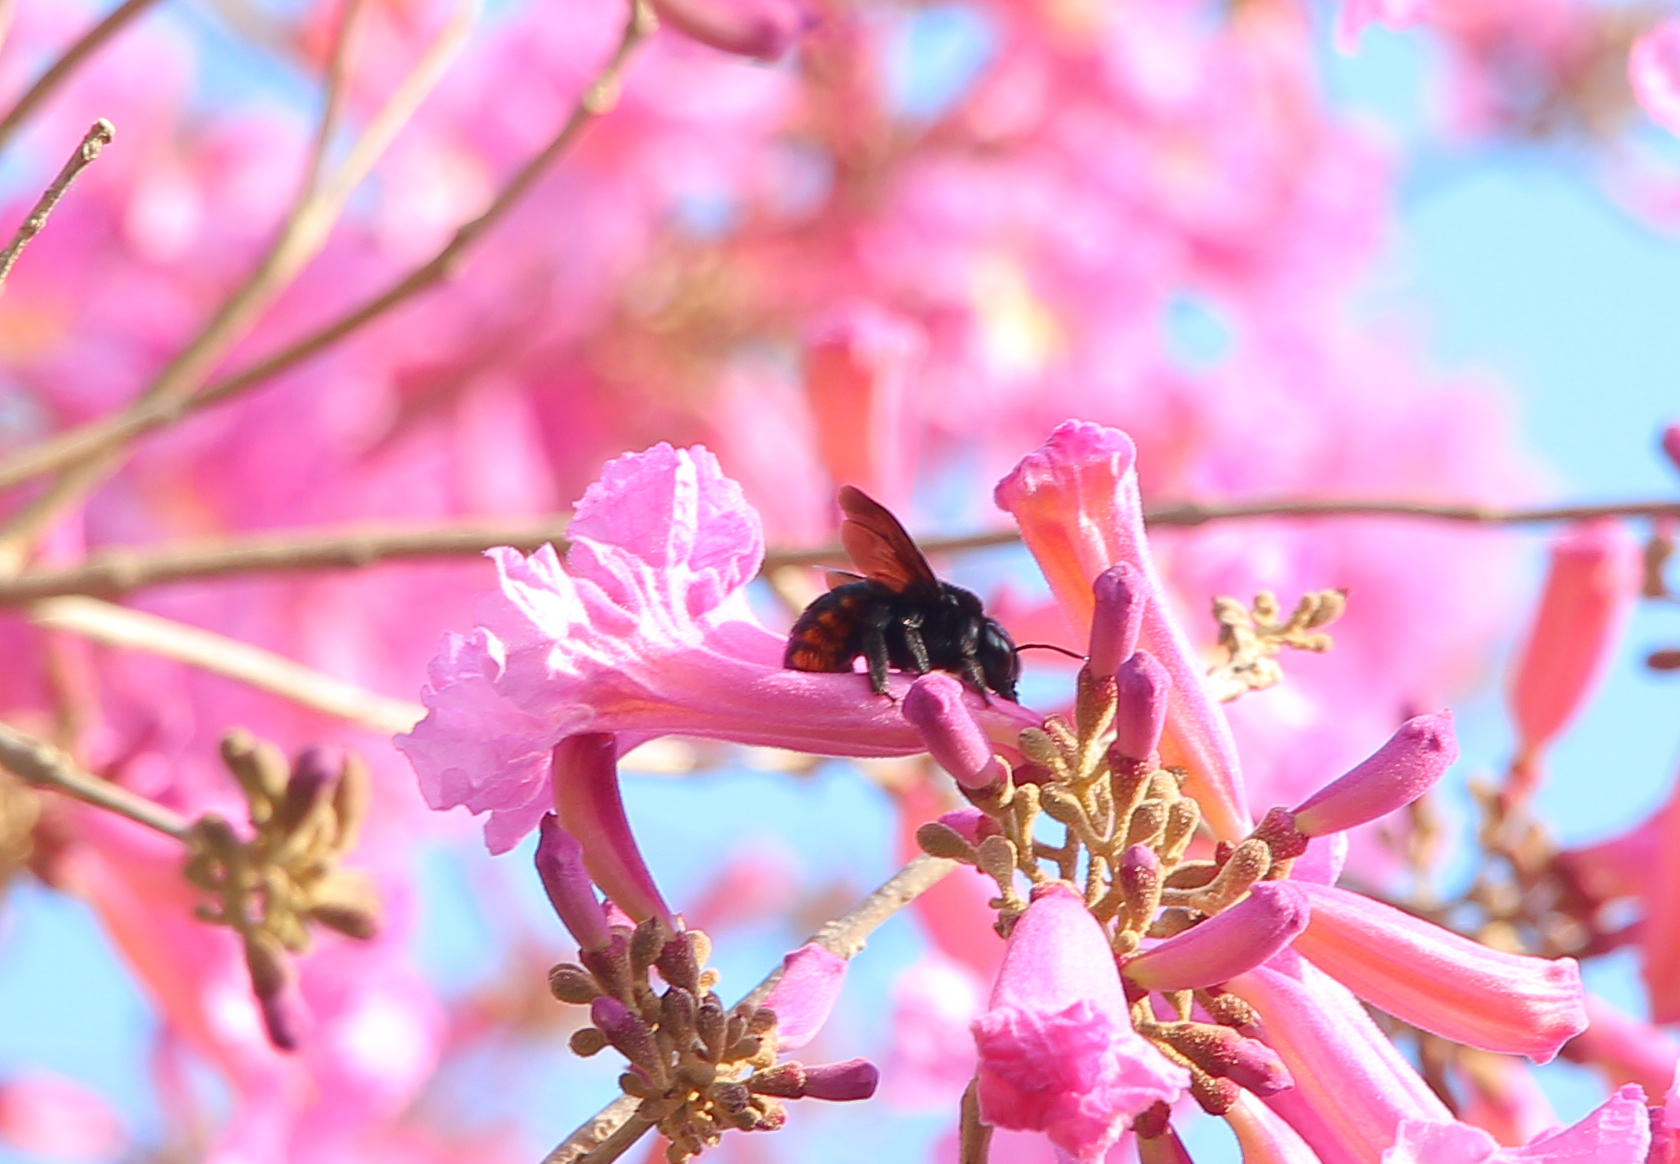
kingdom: Animalia
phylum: Arthropoda
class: Insecta
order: Hymenoptera
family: Apidae
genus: Xylocopa
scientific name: Xylocopa augusti
